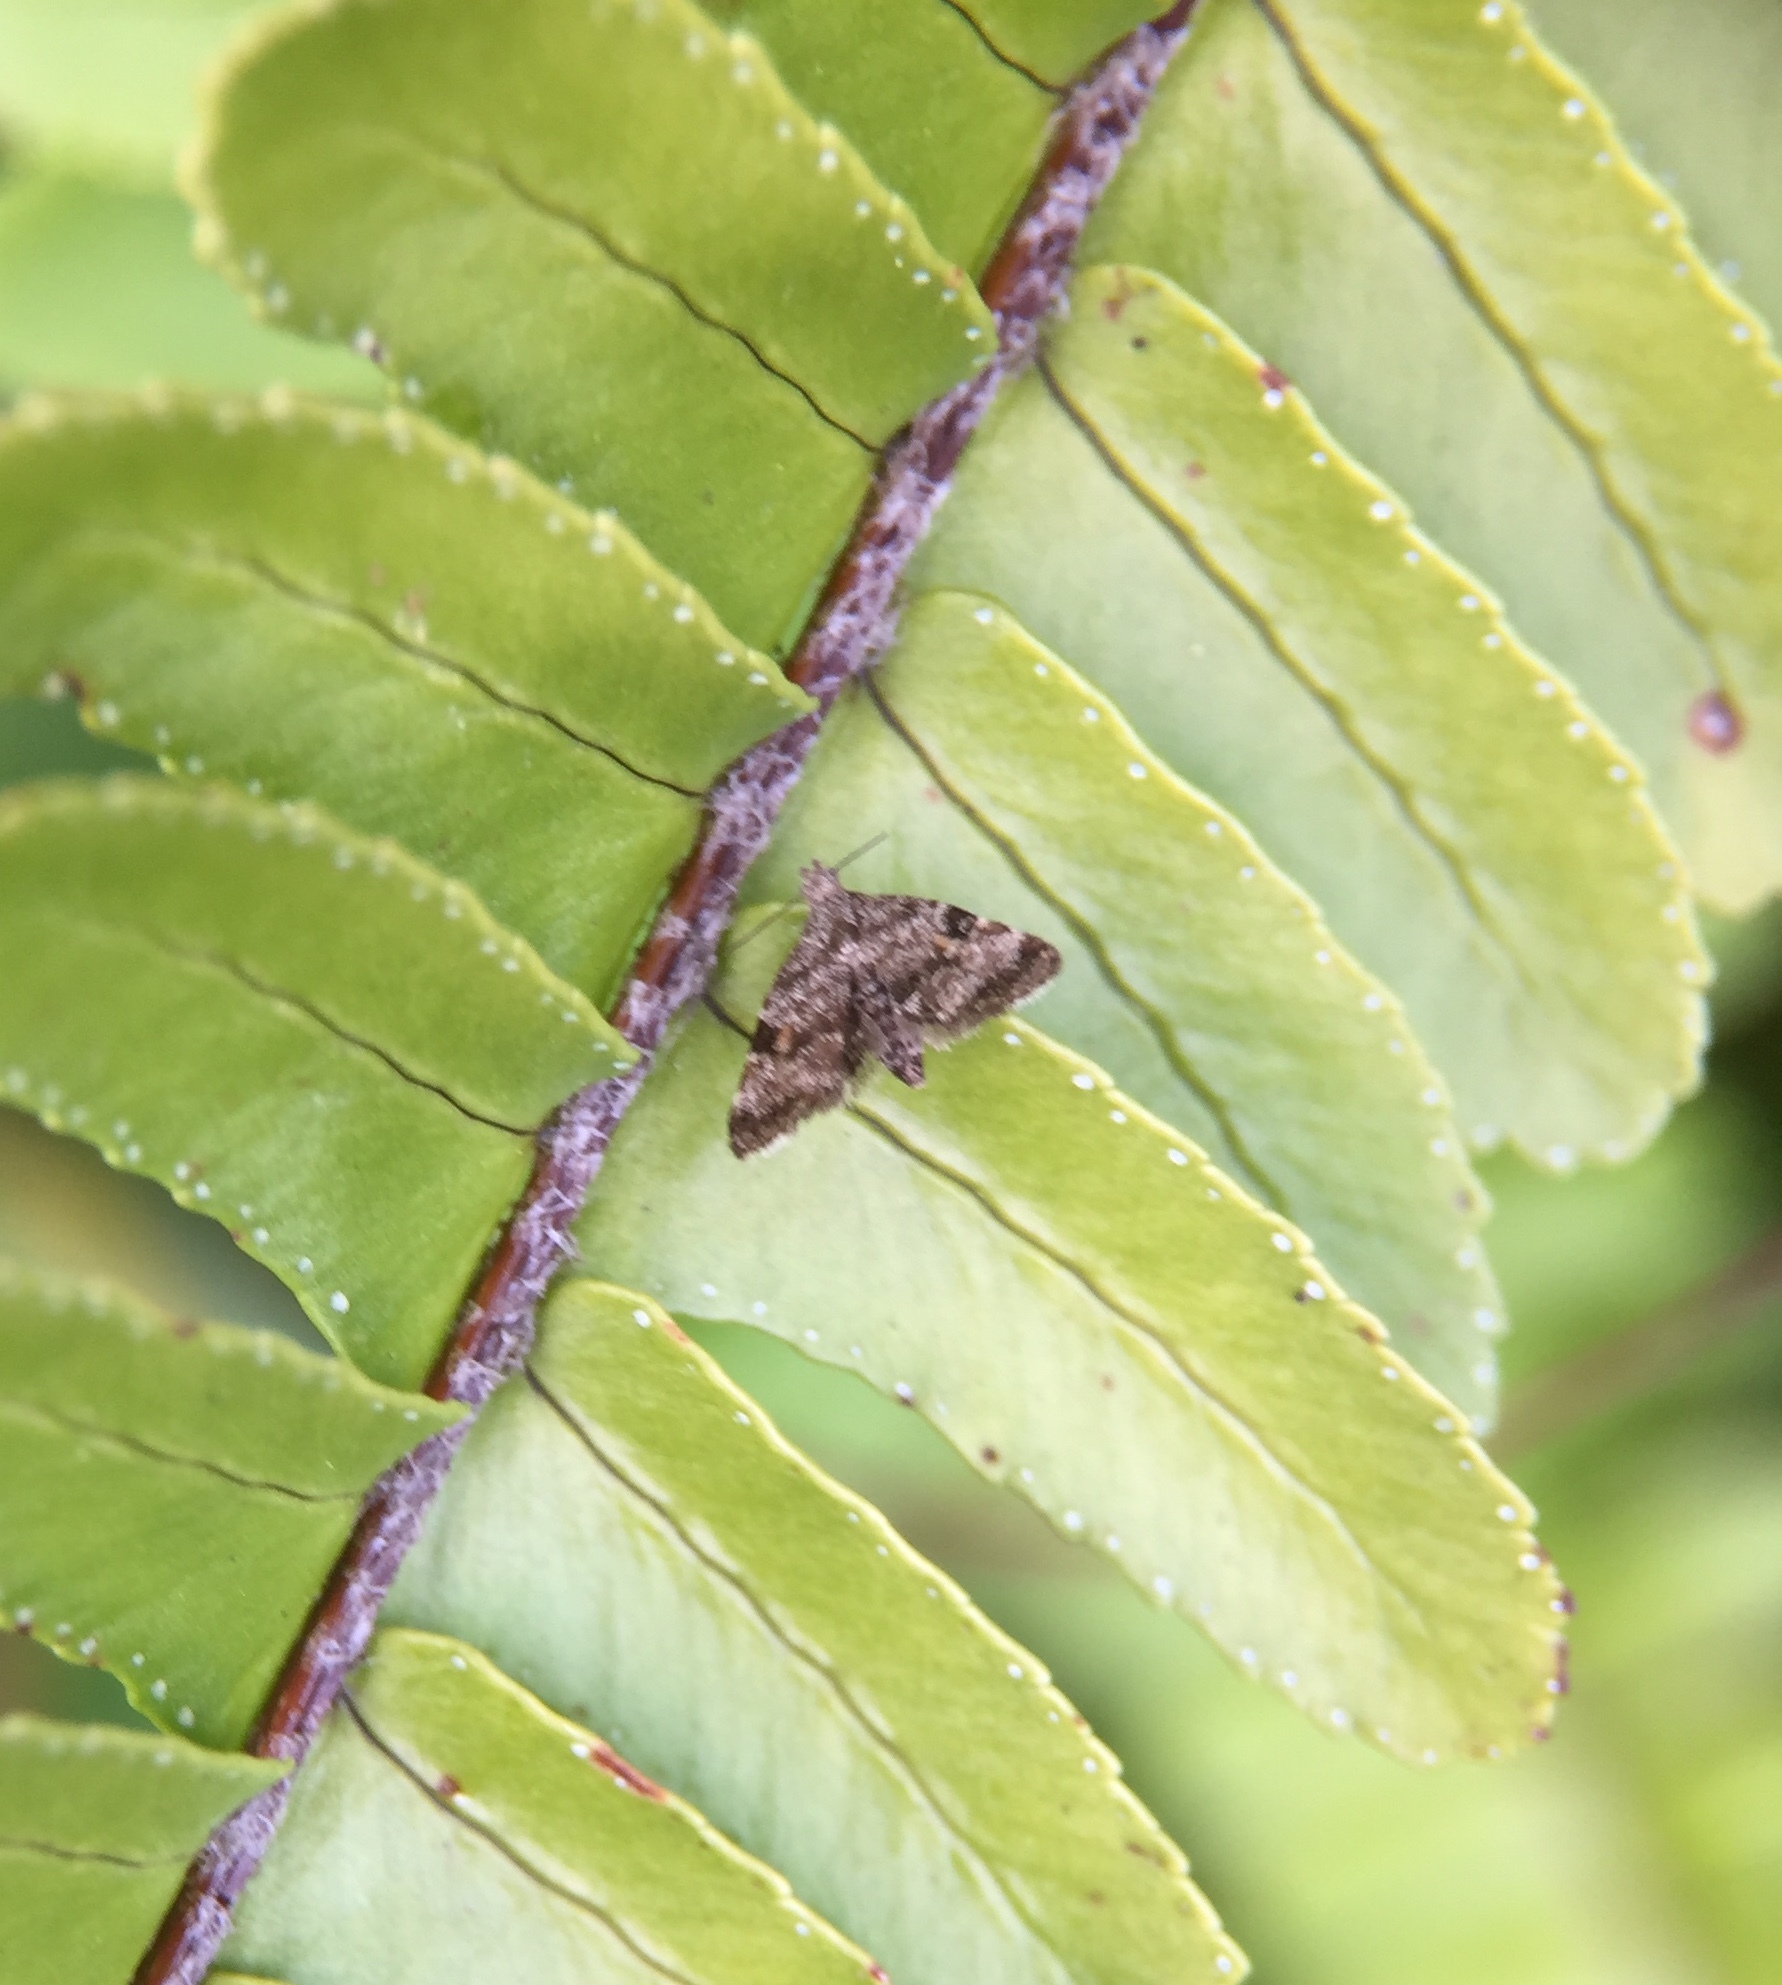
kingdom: Animalia
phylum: Arthropoda
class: Insecta
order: Lepidoptera
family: Choreutidae
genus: Asterivora
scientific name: Asterivora antigrapha
